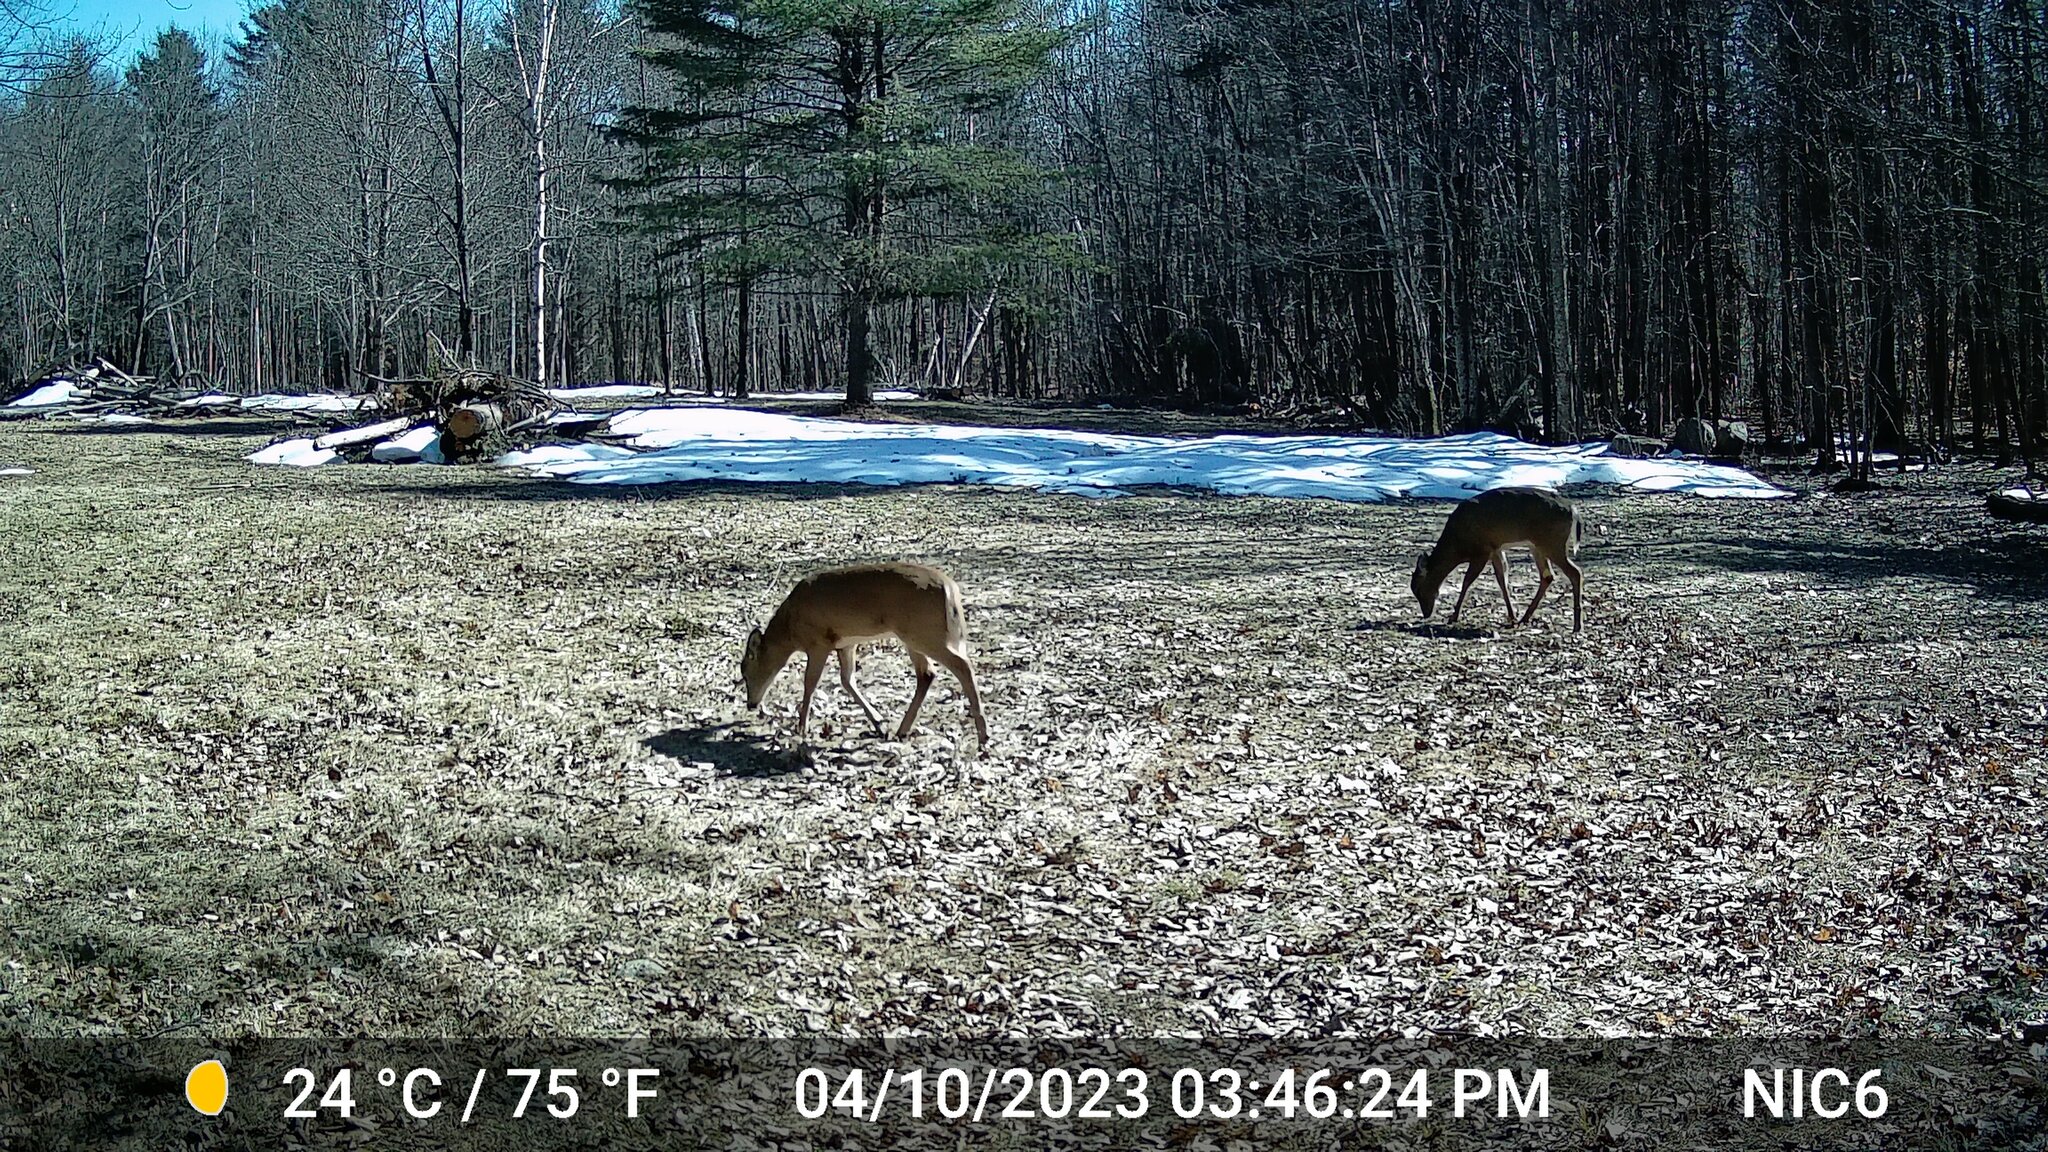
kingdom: Animalia
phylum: Chordata
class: Mammalia
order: Artiodactyla
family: Cervidae
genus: Odocoileus
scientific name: Odocoileus virginianus
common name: White-tailed deer
